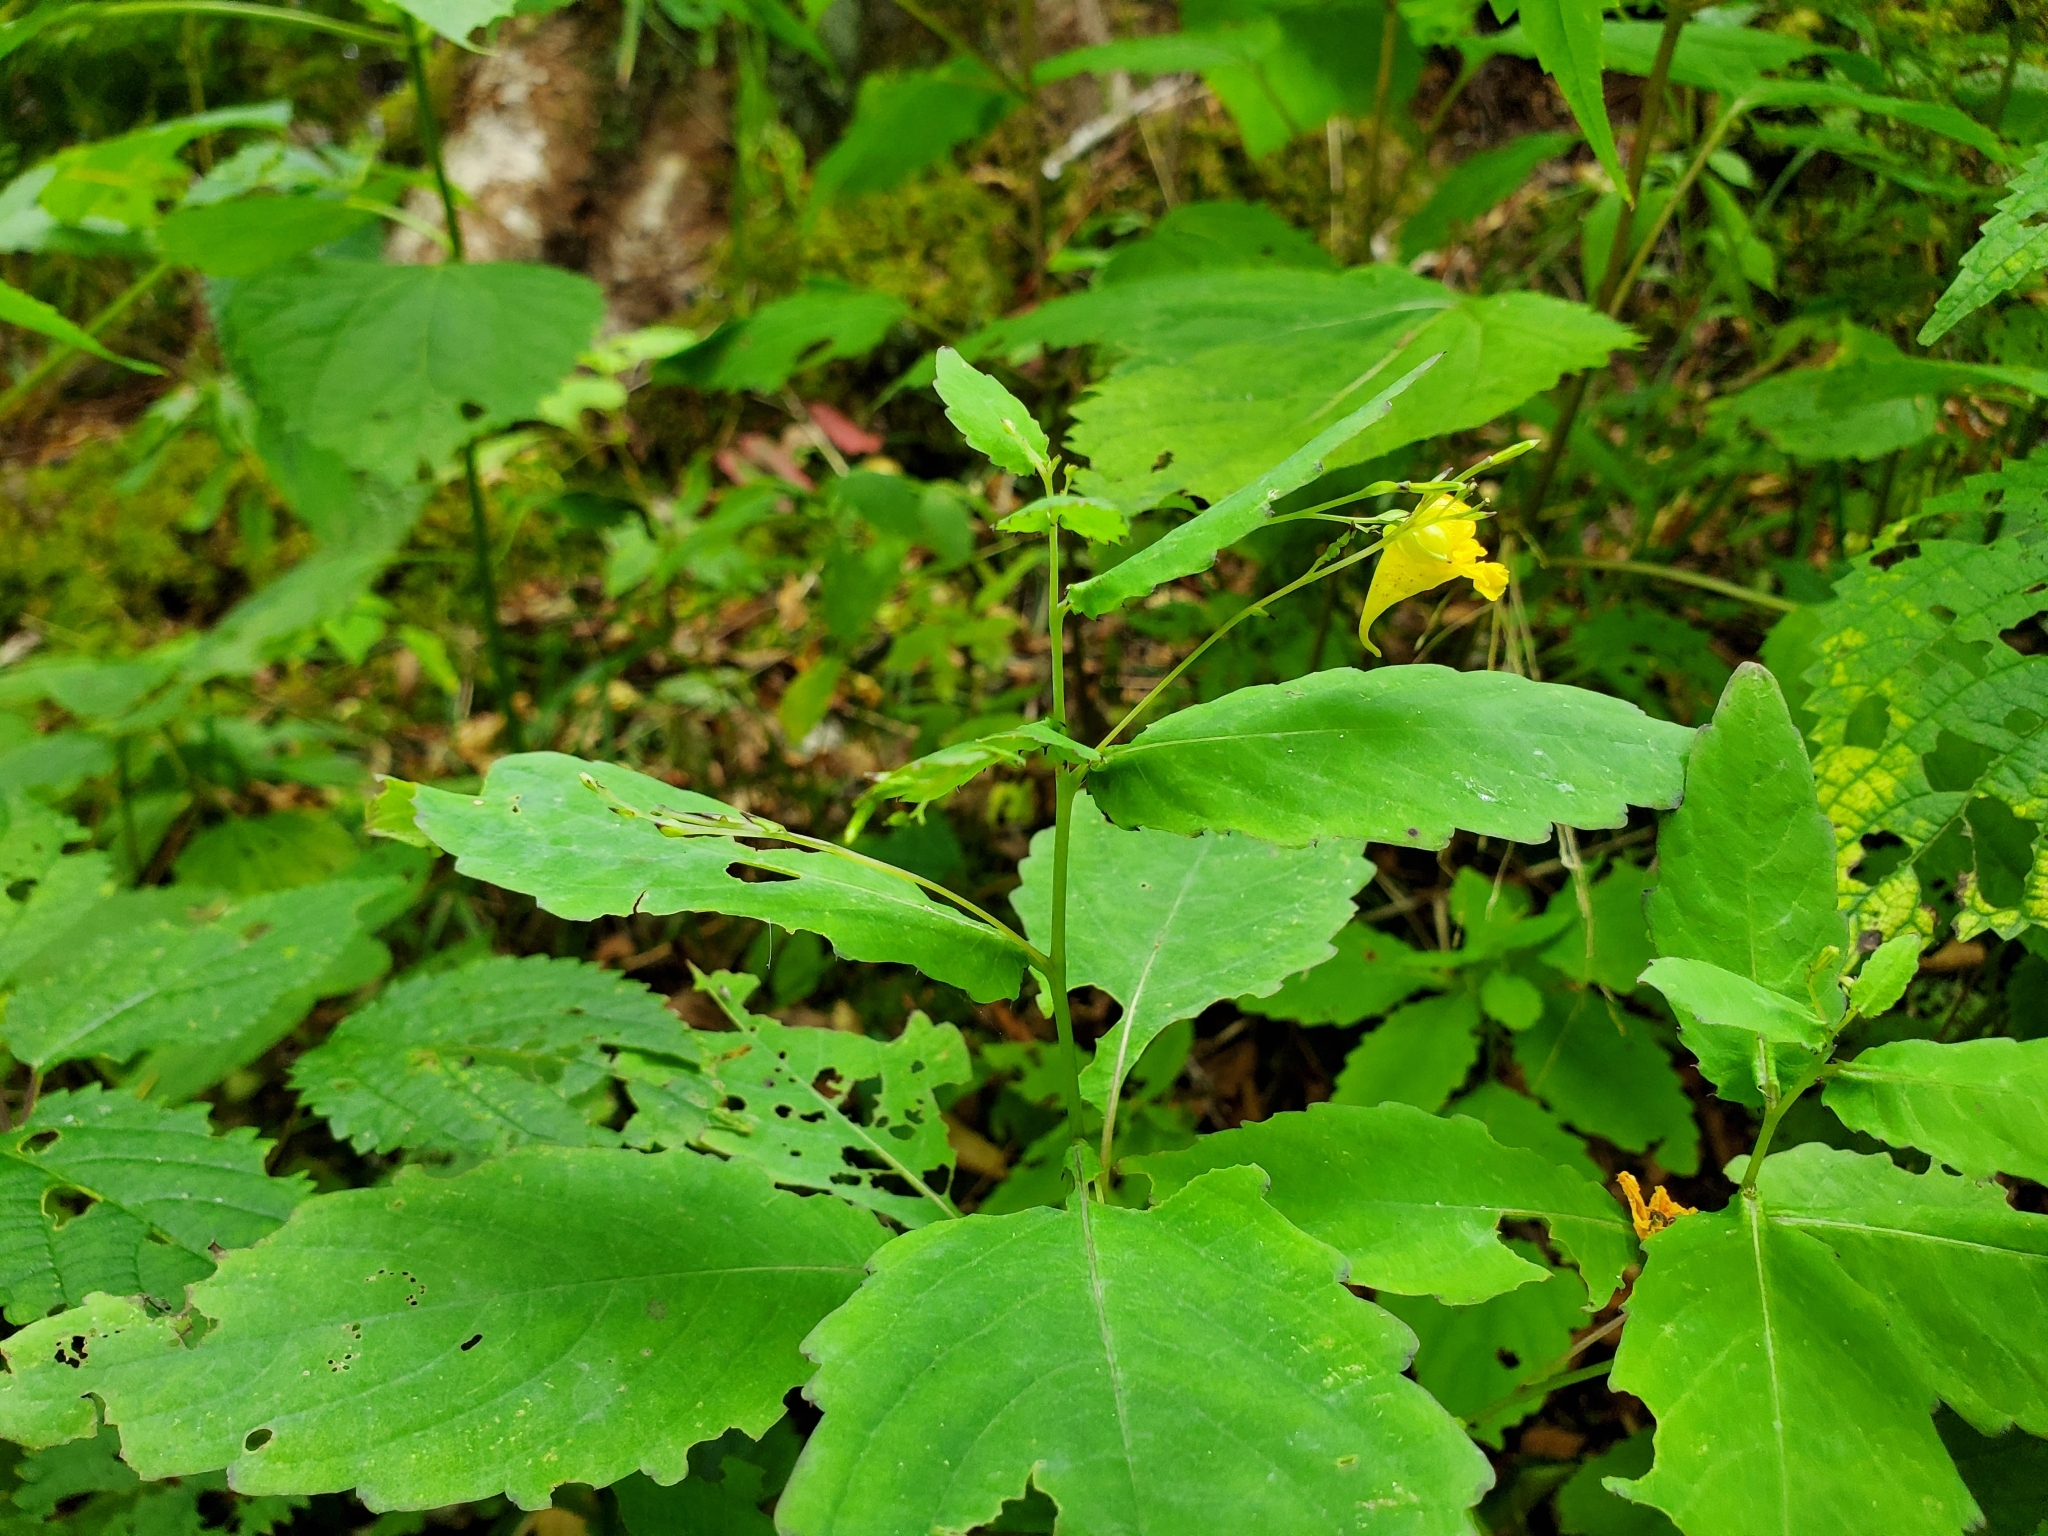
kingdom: Plantae
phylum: Tracheophyta
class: Magnoliopsida
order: Ericales
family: Balsaminaceae
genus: Impatiens
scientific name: Impatiens pallida
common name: Pale snapweed
